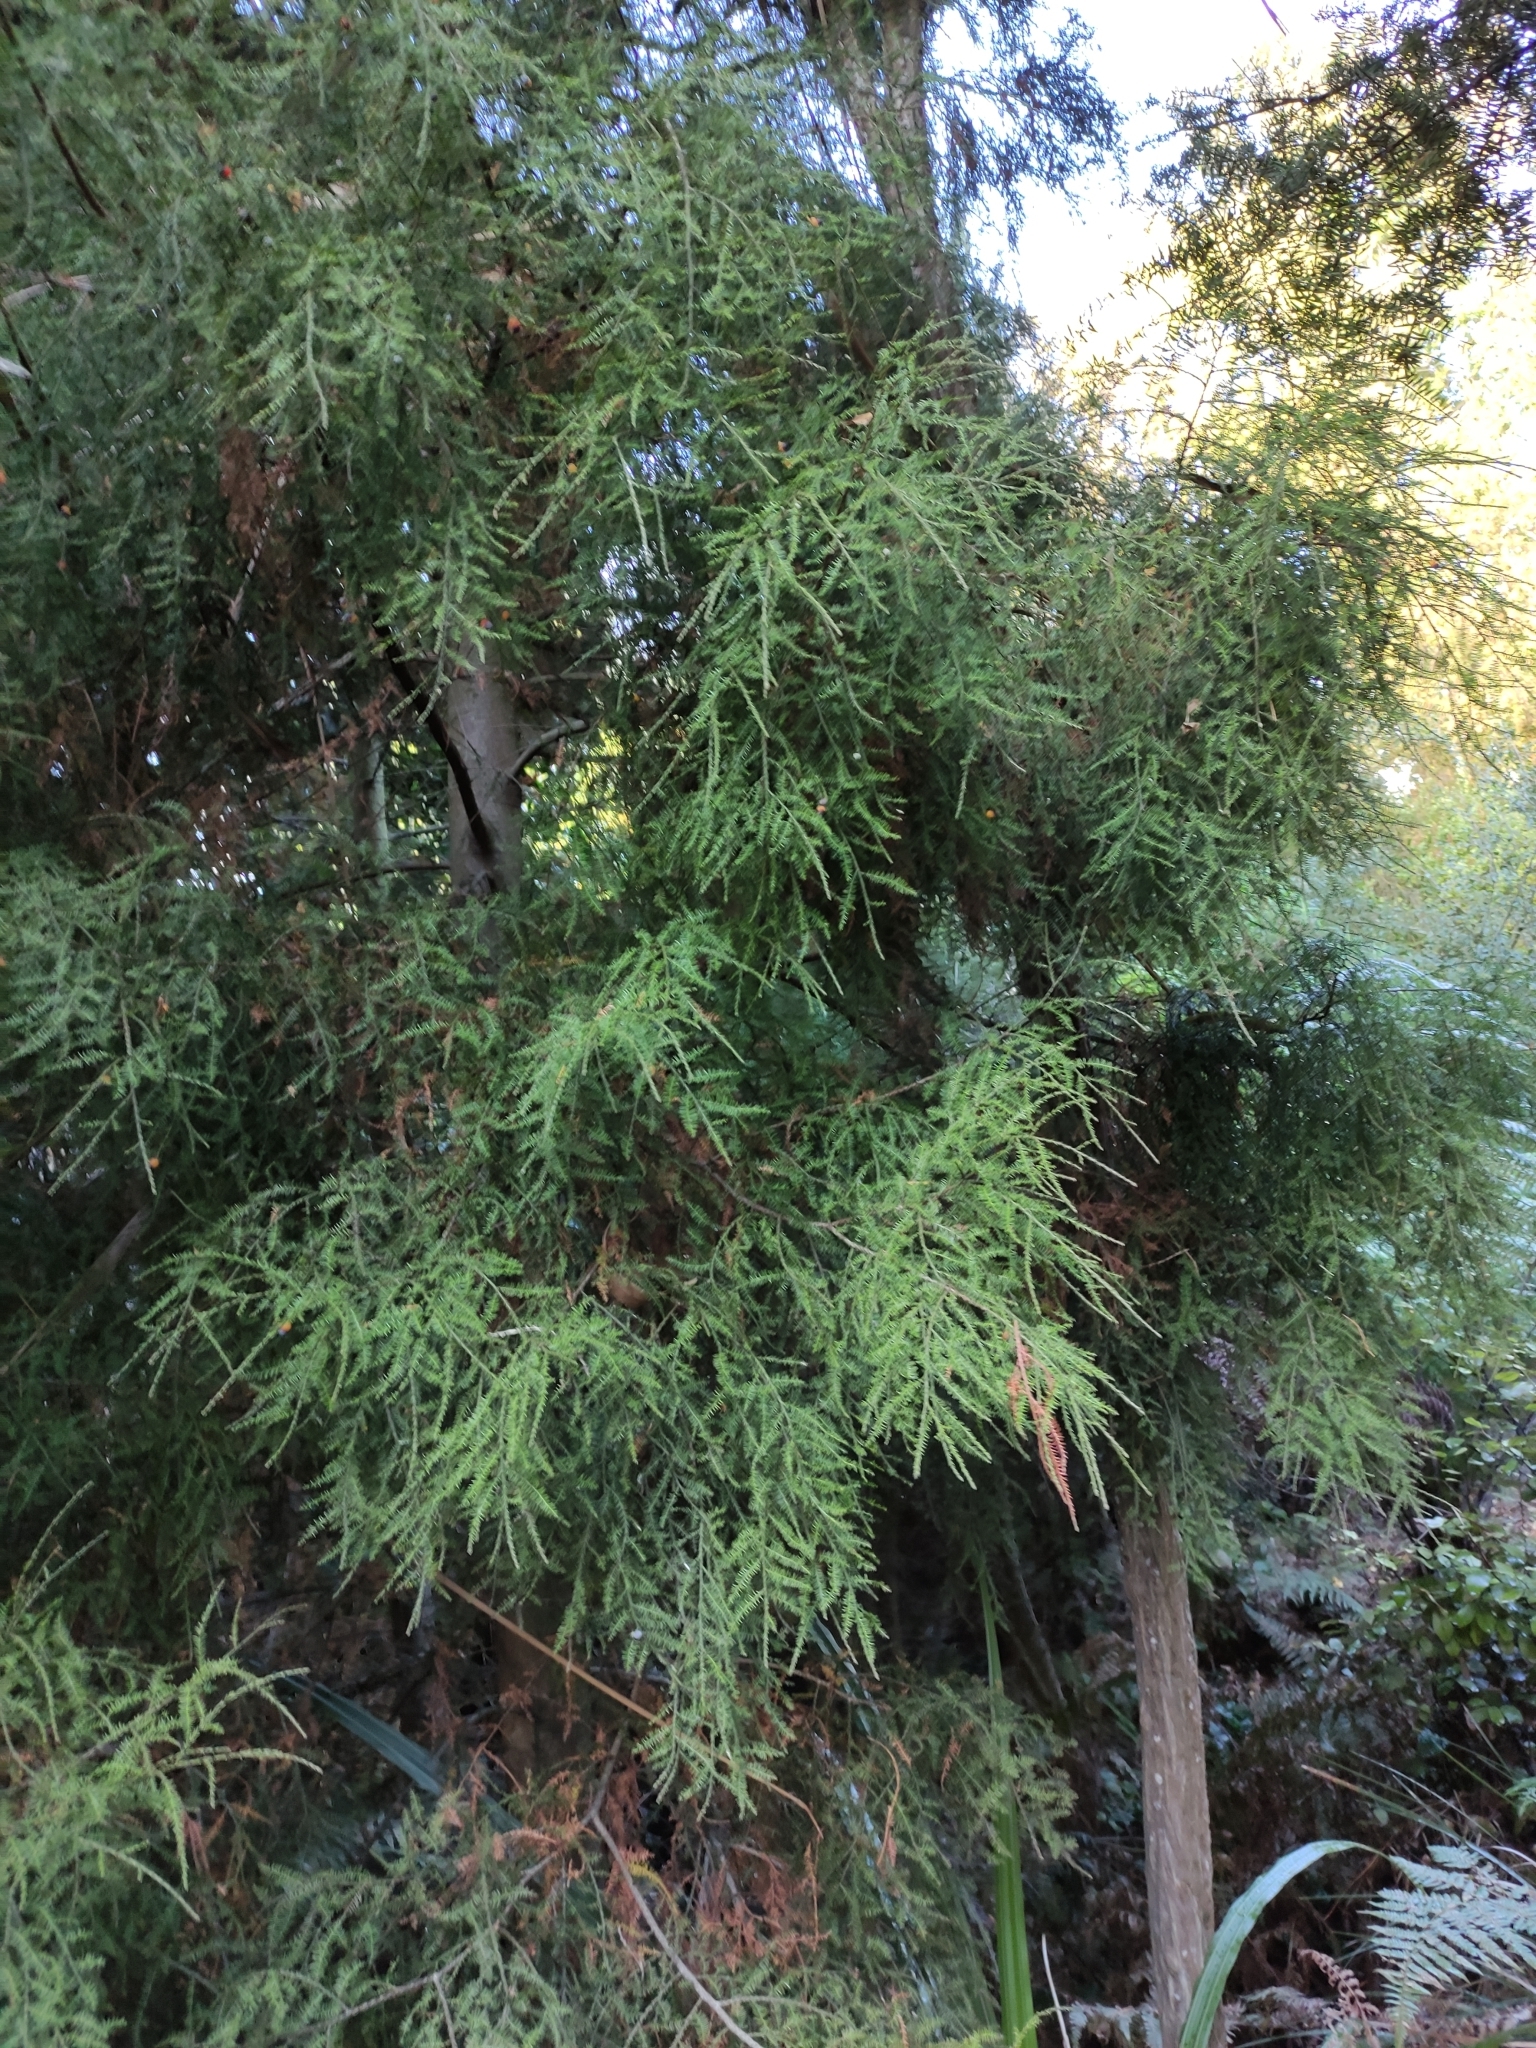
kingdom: Plantae
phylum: Tracheophyta
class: Pinopsida
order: Pinales
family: Podocarpaceae
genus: Dacrycarpus
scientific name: Dacrycarpus dacrydioides
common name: White pine
